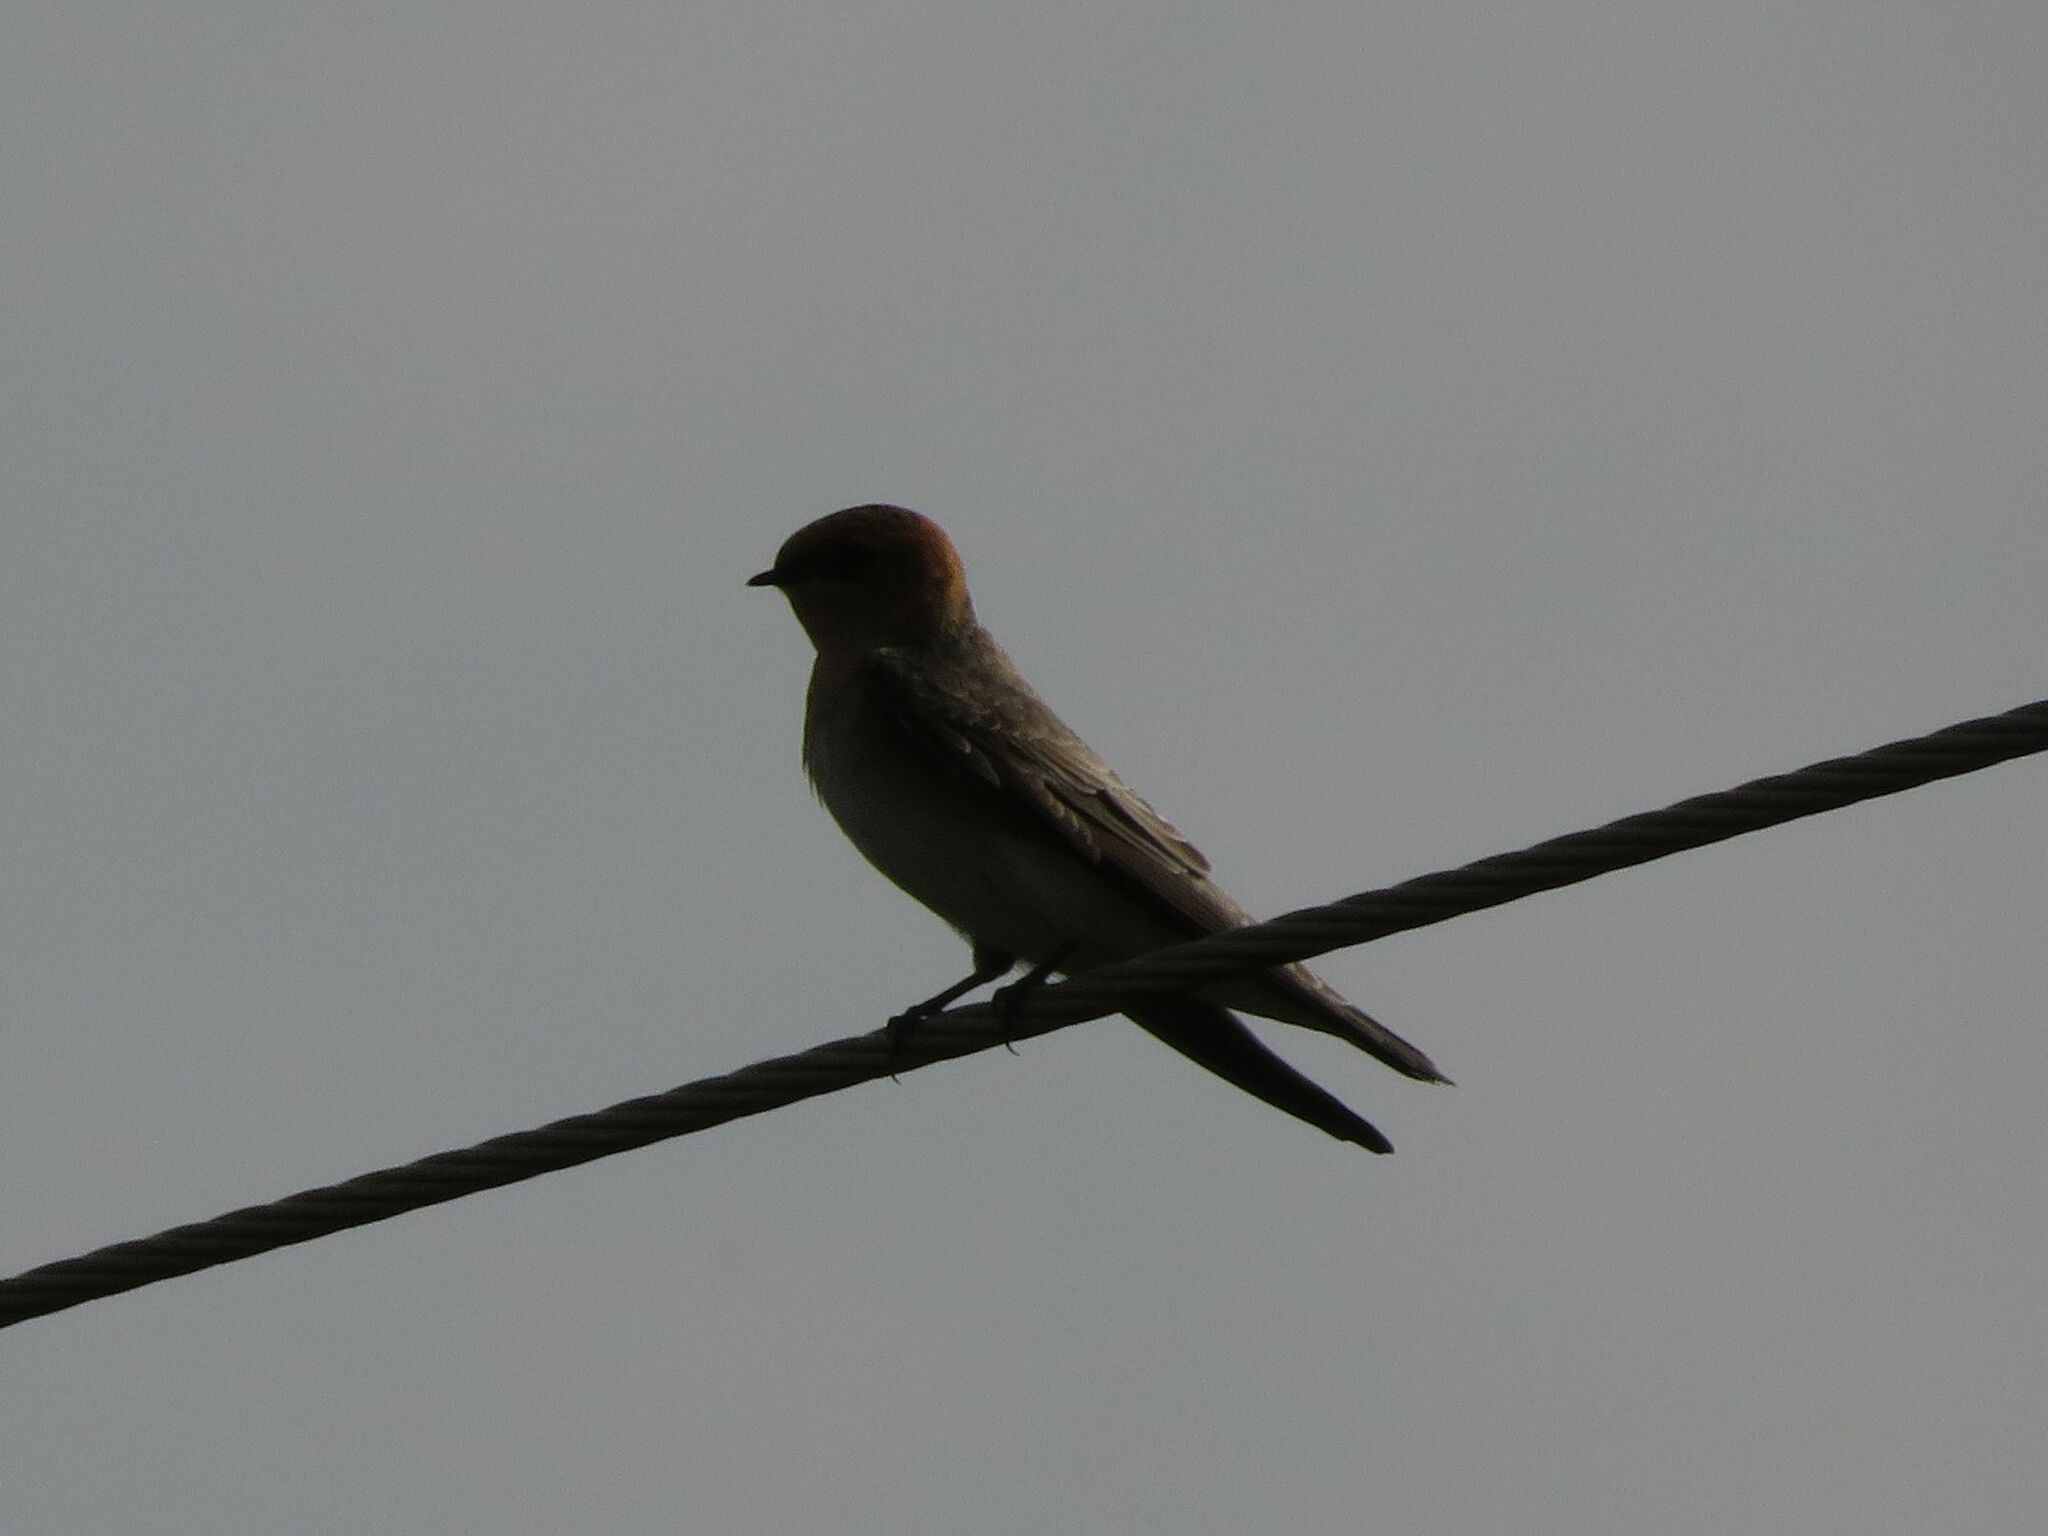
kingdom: Animalia
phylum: Chordata
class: Aves
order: Passeriformes
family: Hirundinidae
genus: Alopochelidon
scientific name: Alopochelidon fucata
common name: Tawny-headed swallow
